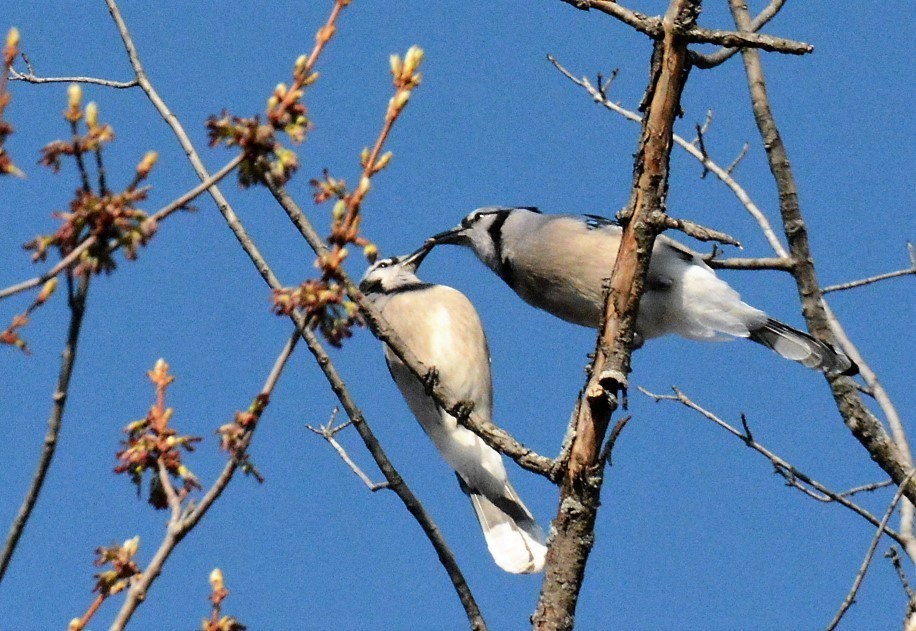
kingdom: Animalia
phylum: Chordata
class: Aves
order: Passeriformes
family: Corvidae
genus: Cyanocitta
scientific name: Cyanocitta cristata
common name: Blue jay
